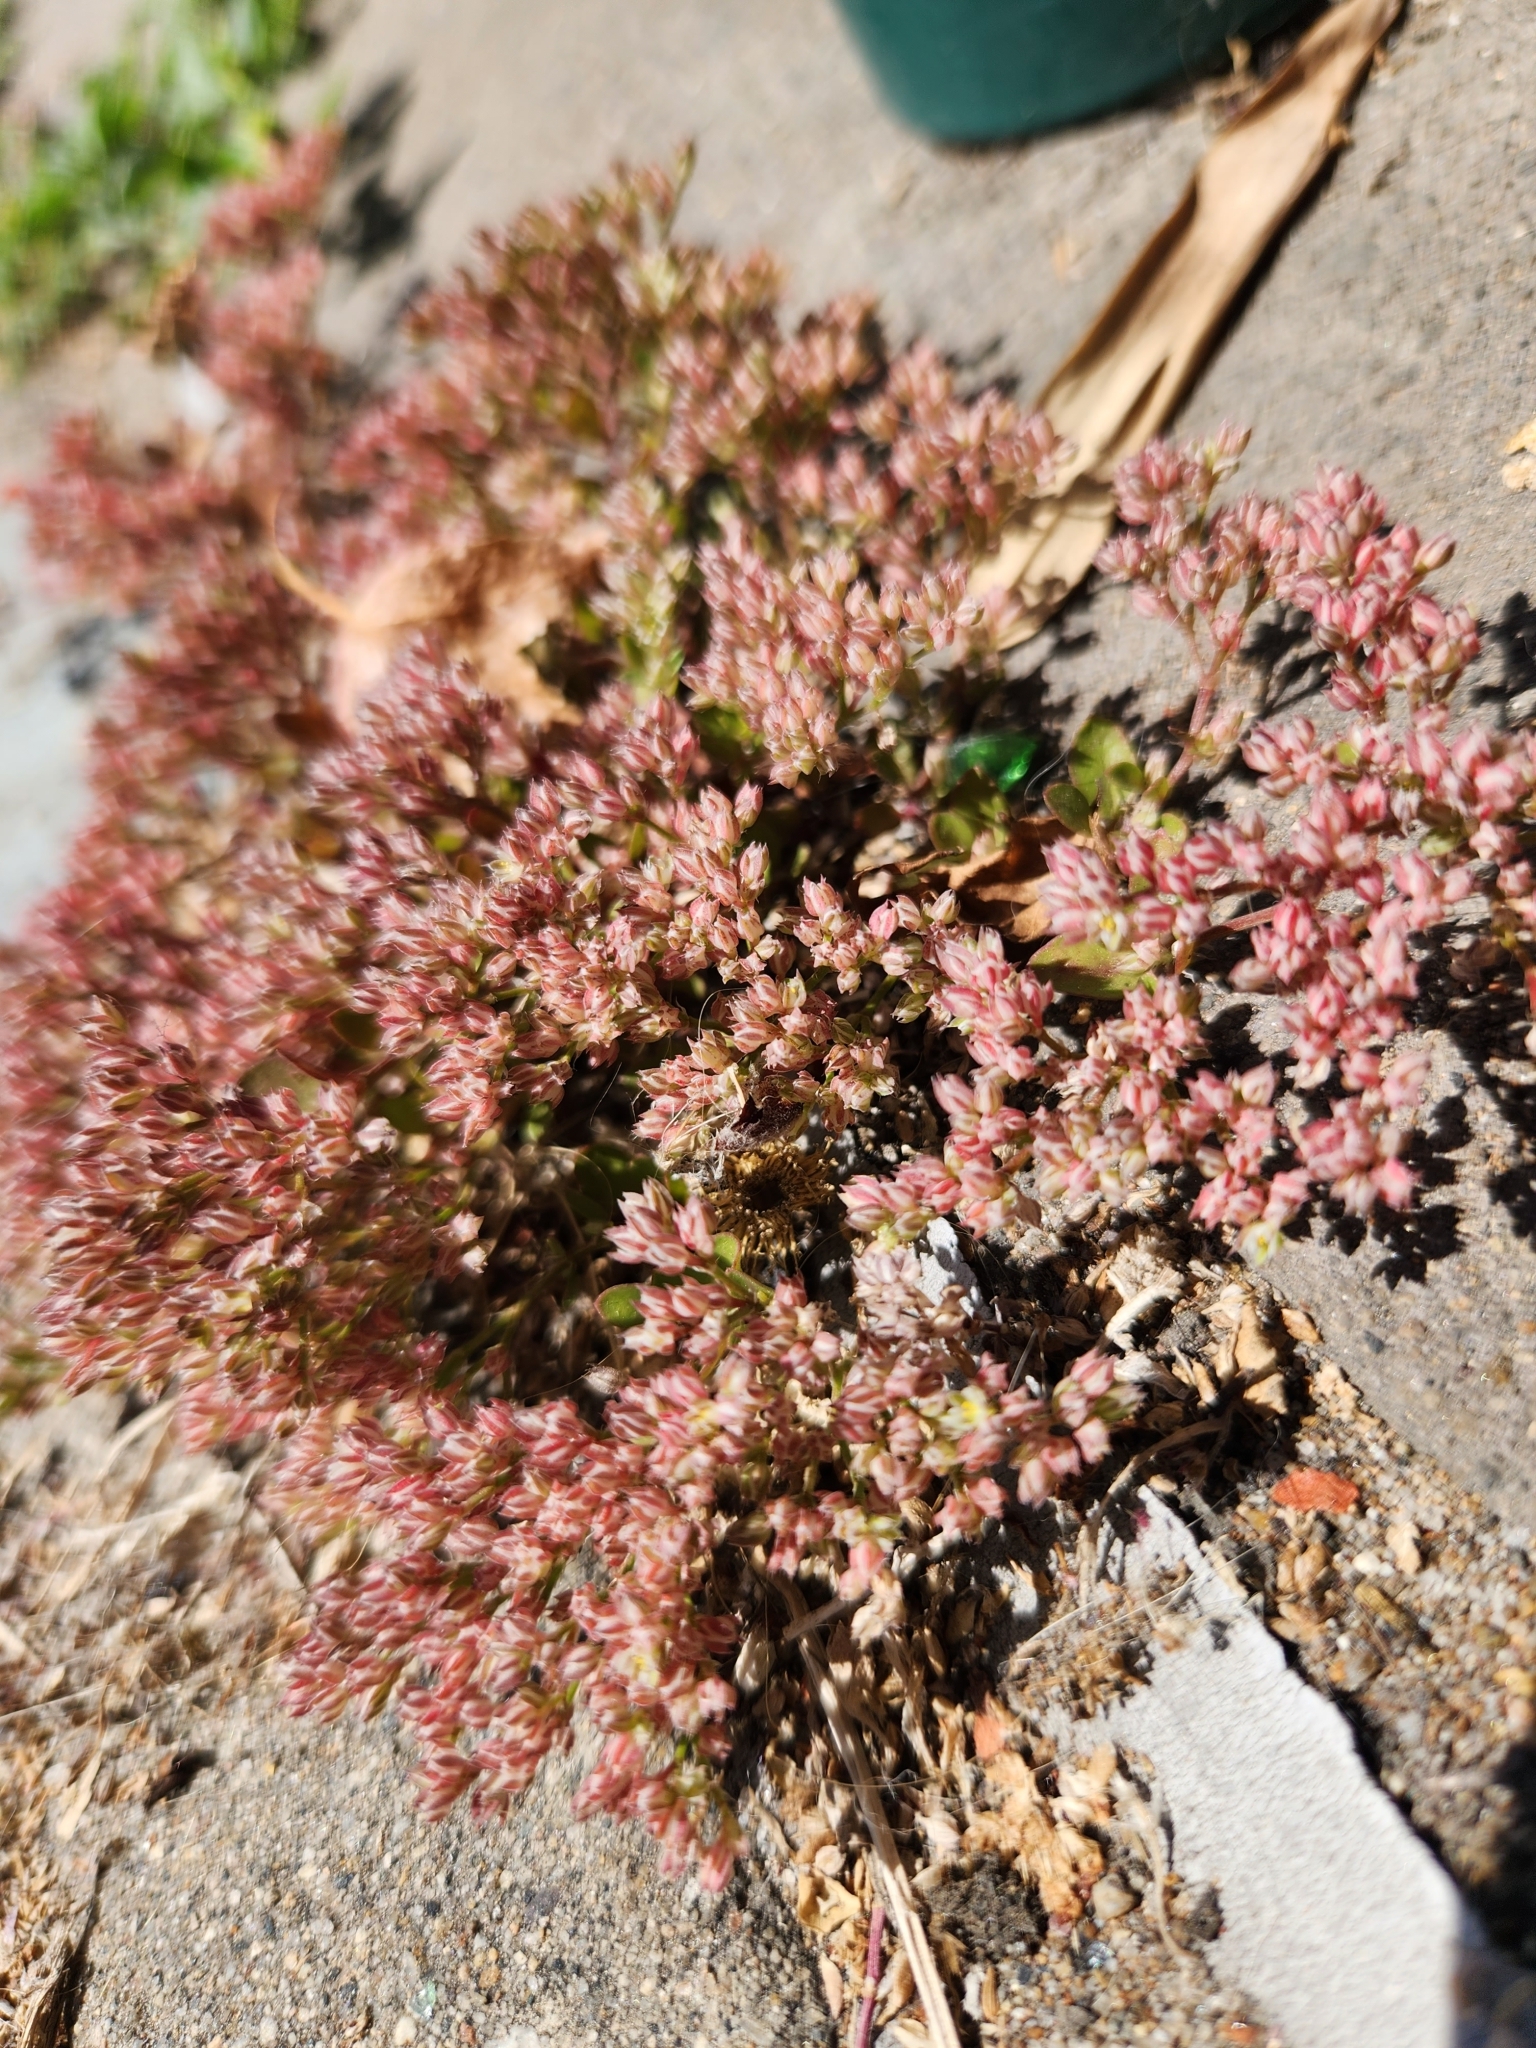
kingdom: Plantae
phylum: Tracheophyta
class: Magnoliopsida
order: Caryophyllales
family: Caryophyllaceae
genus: Polycarpon
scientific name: Polycarpon tetraphyllum
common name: Four-leaved all-seed
